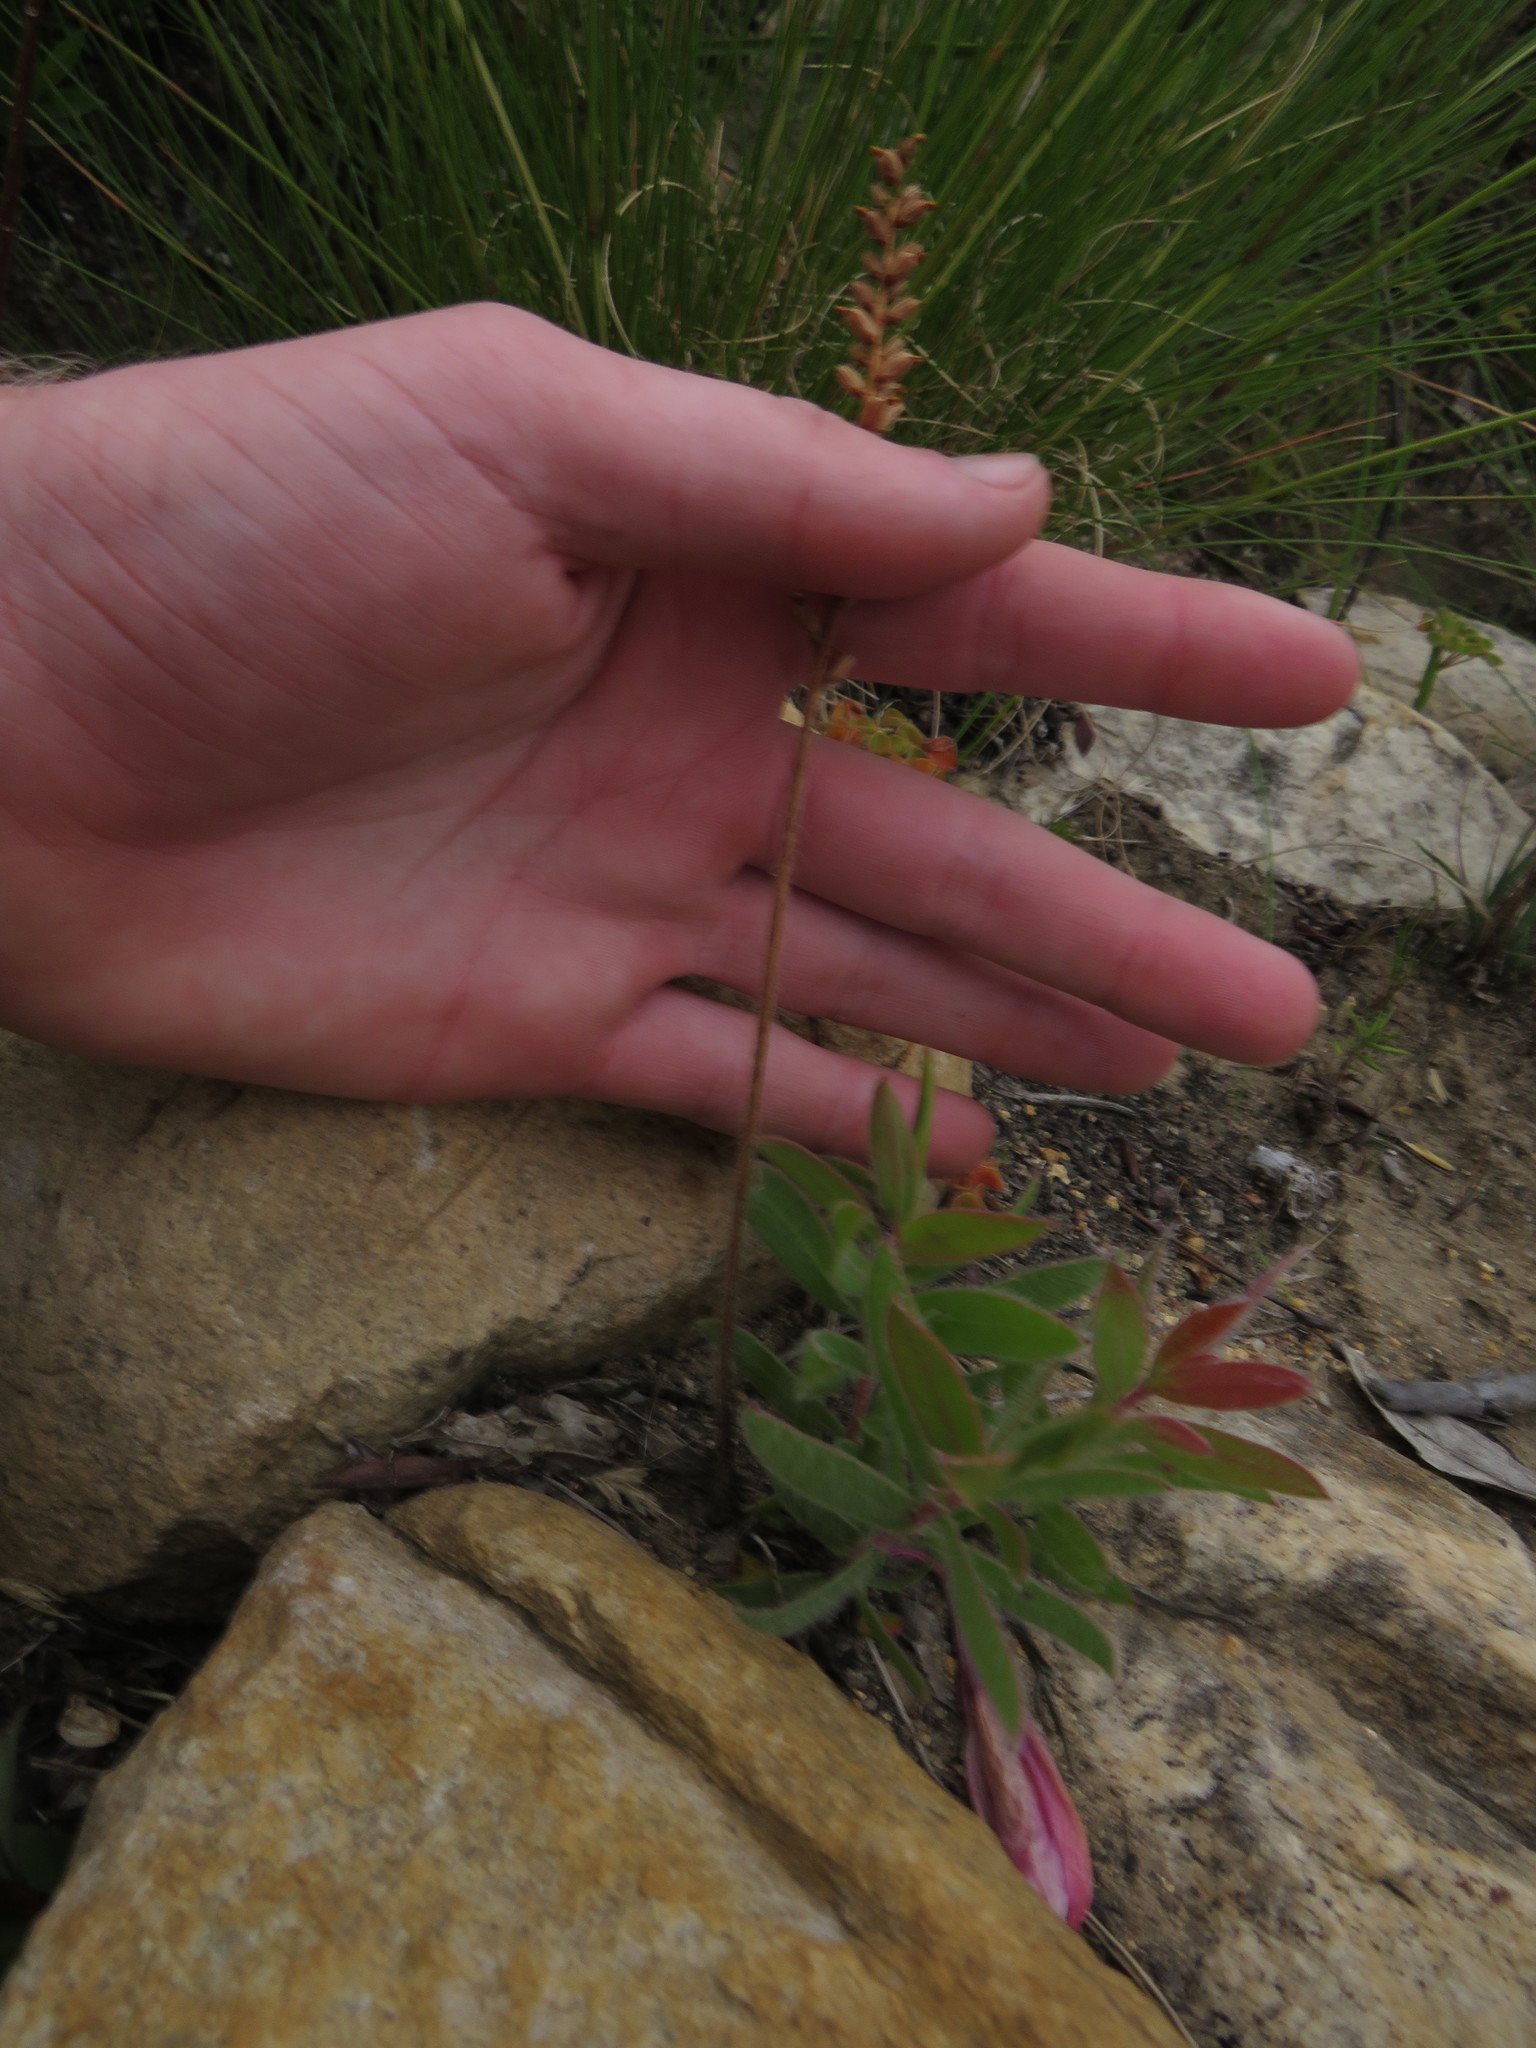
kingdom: Plantae
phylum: Tracheophyta
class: Liliopsida
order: Asparagales
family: Orchidaceae
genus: Holothrix
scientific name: Holothrix villosa
